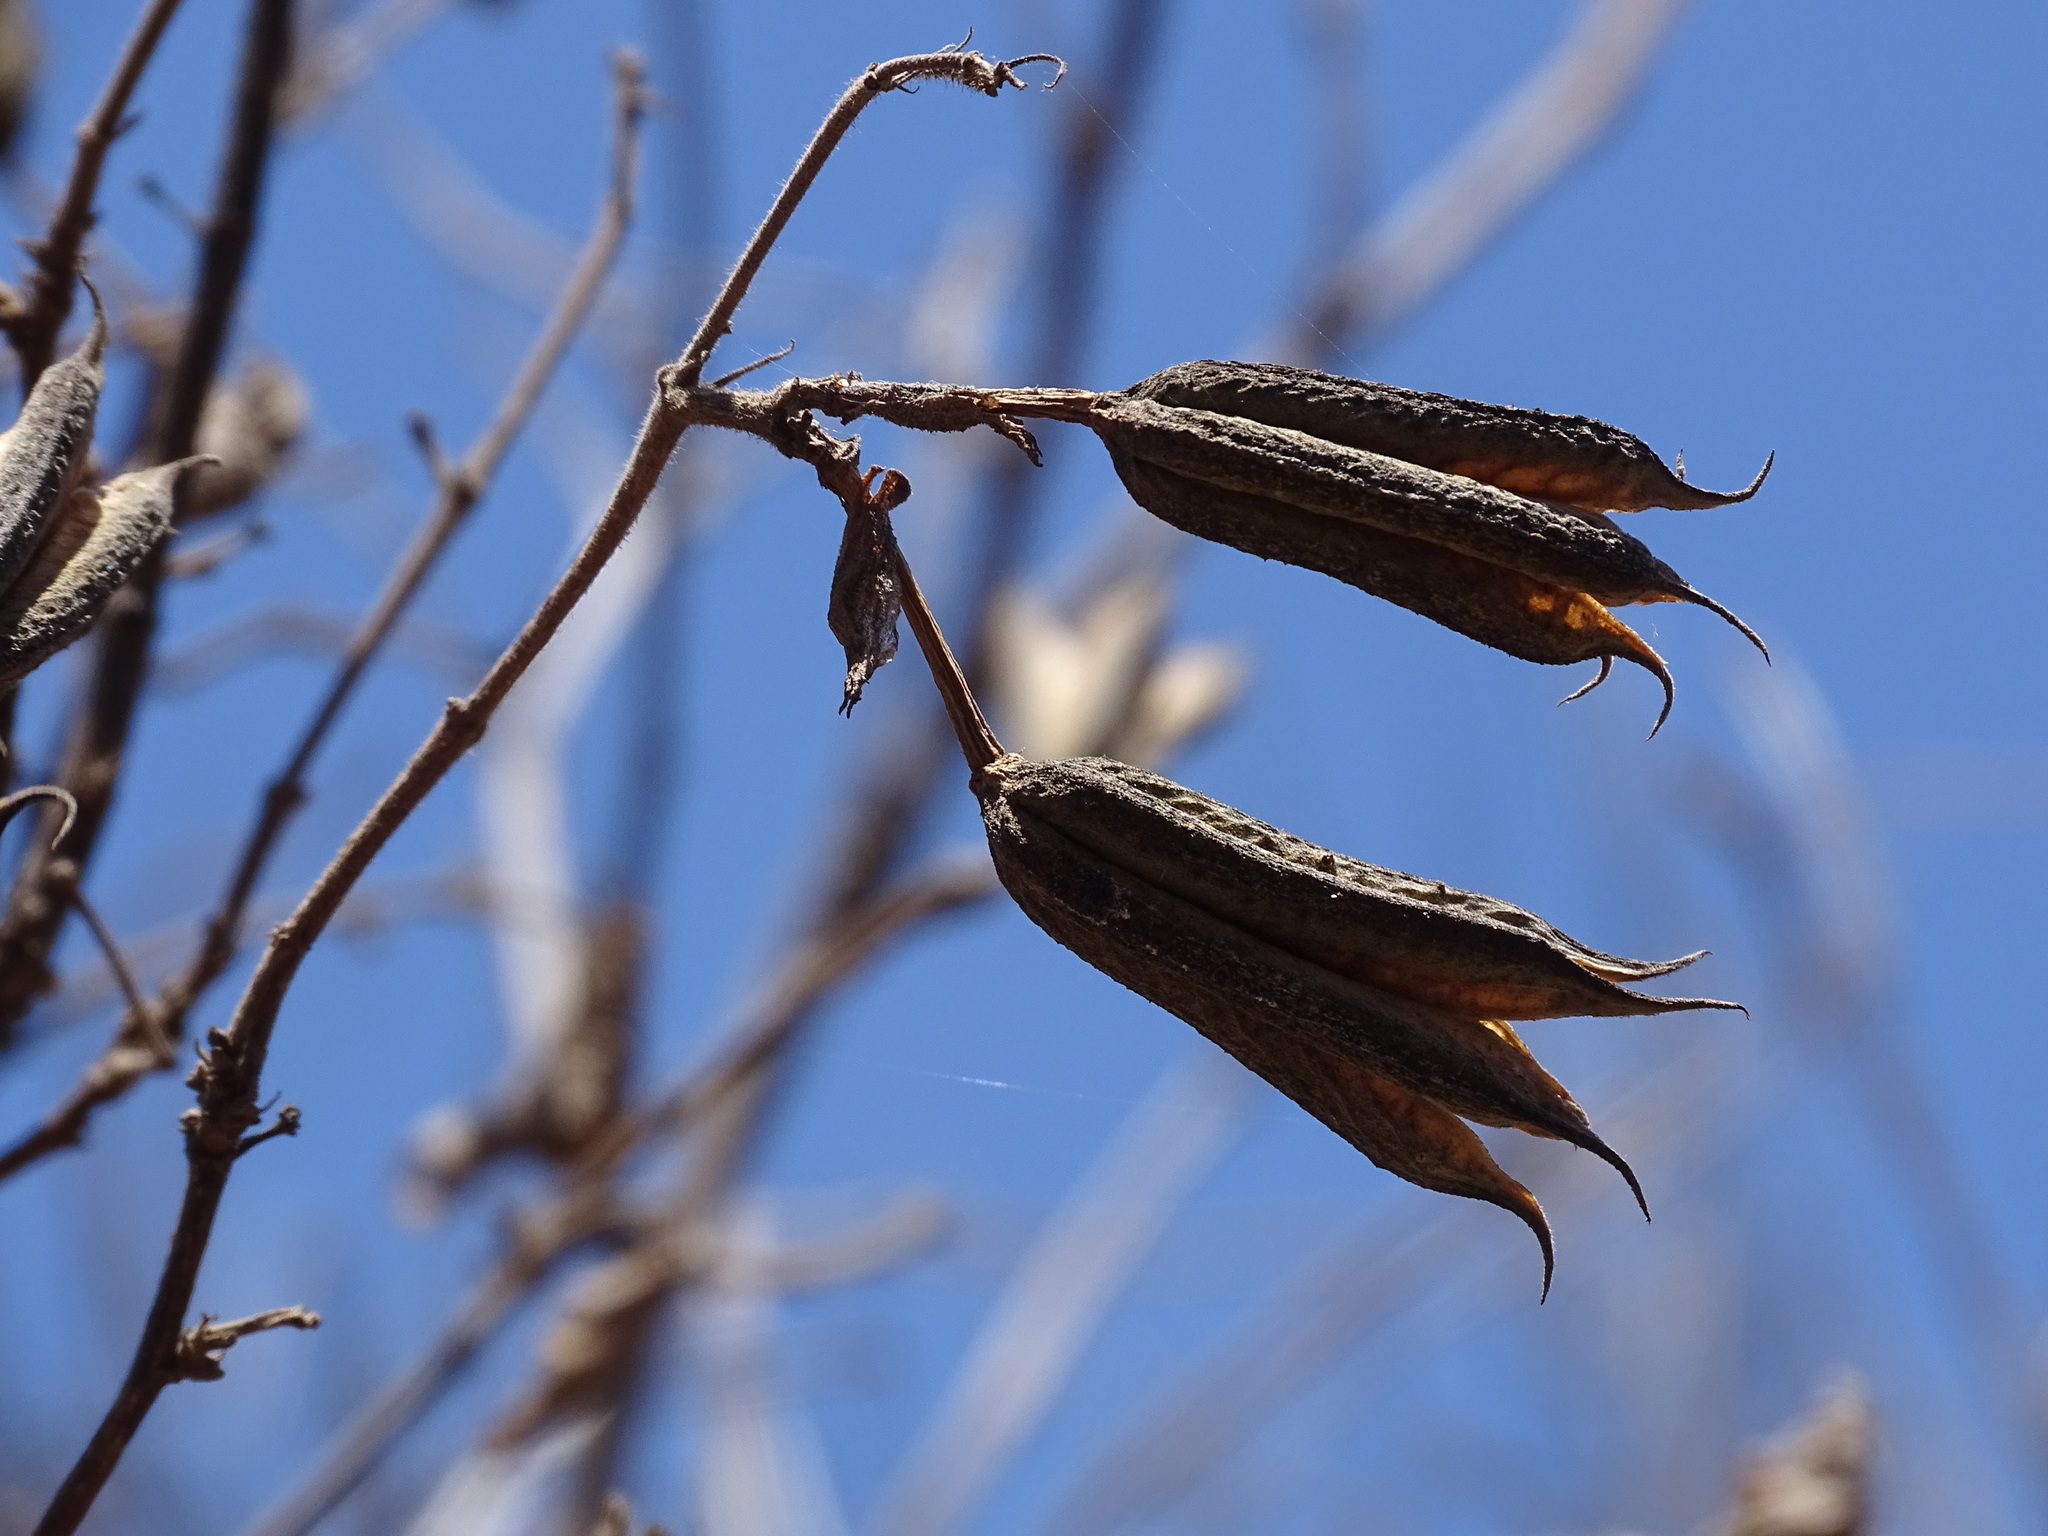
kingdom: Plantae
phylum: Tracheophyta
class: Magnoliopsida
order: Malvales
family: Malvaceae
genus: Helicteres
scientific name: Helicteres vegae
